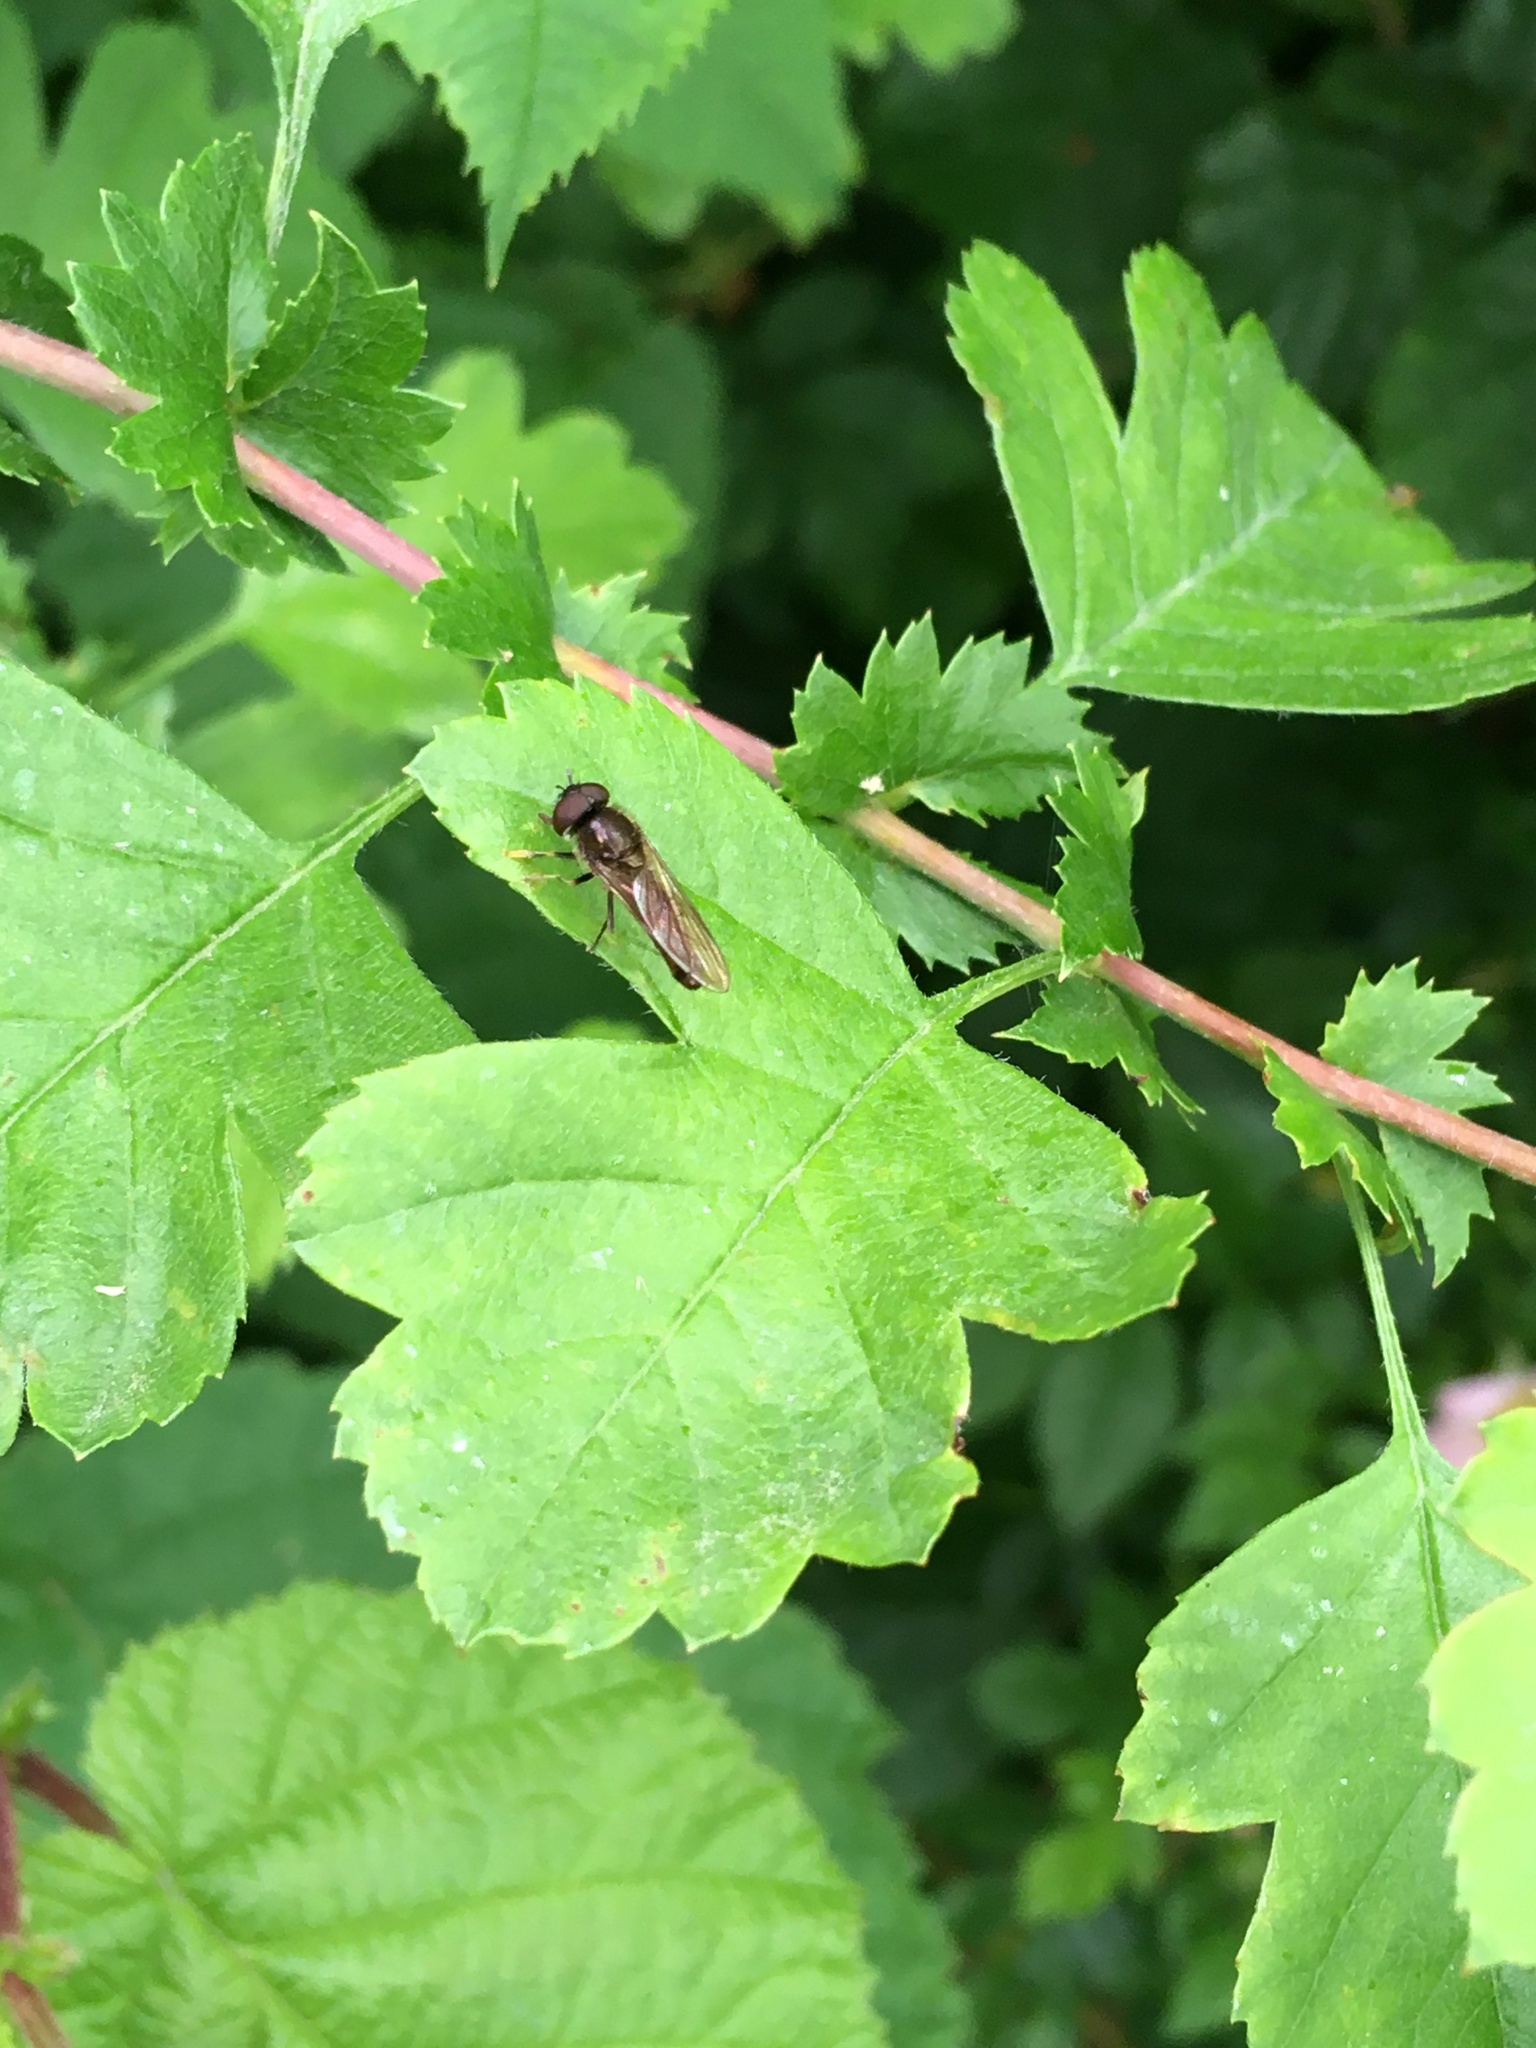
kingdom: Animalia
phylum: Arthropoda
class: Insecta
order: Diptera
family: Syrphidae
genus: Platycheirus
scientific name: Platycheirus
